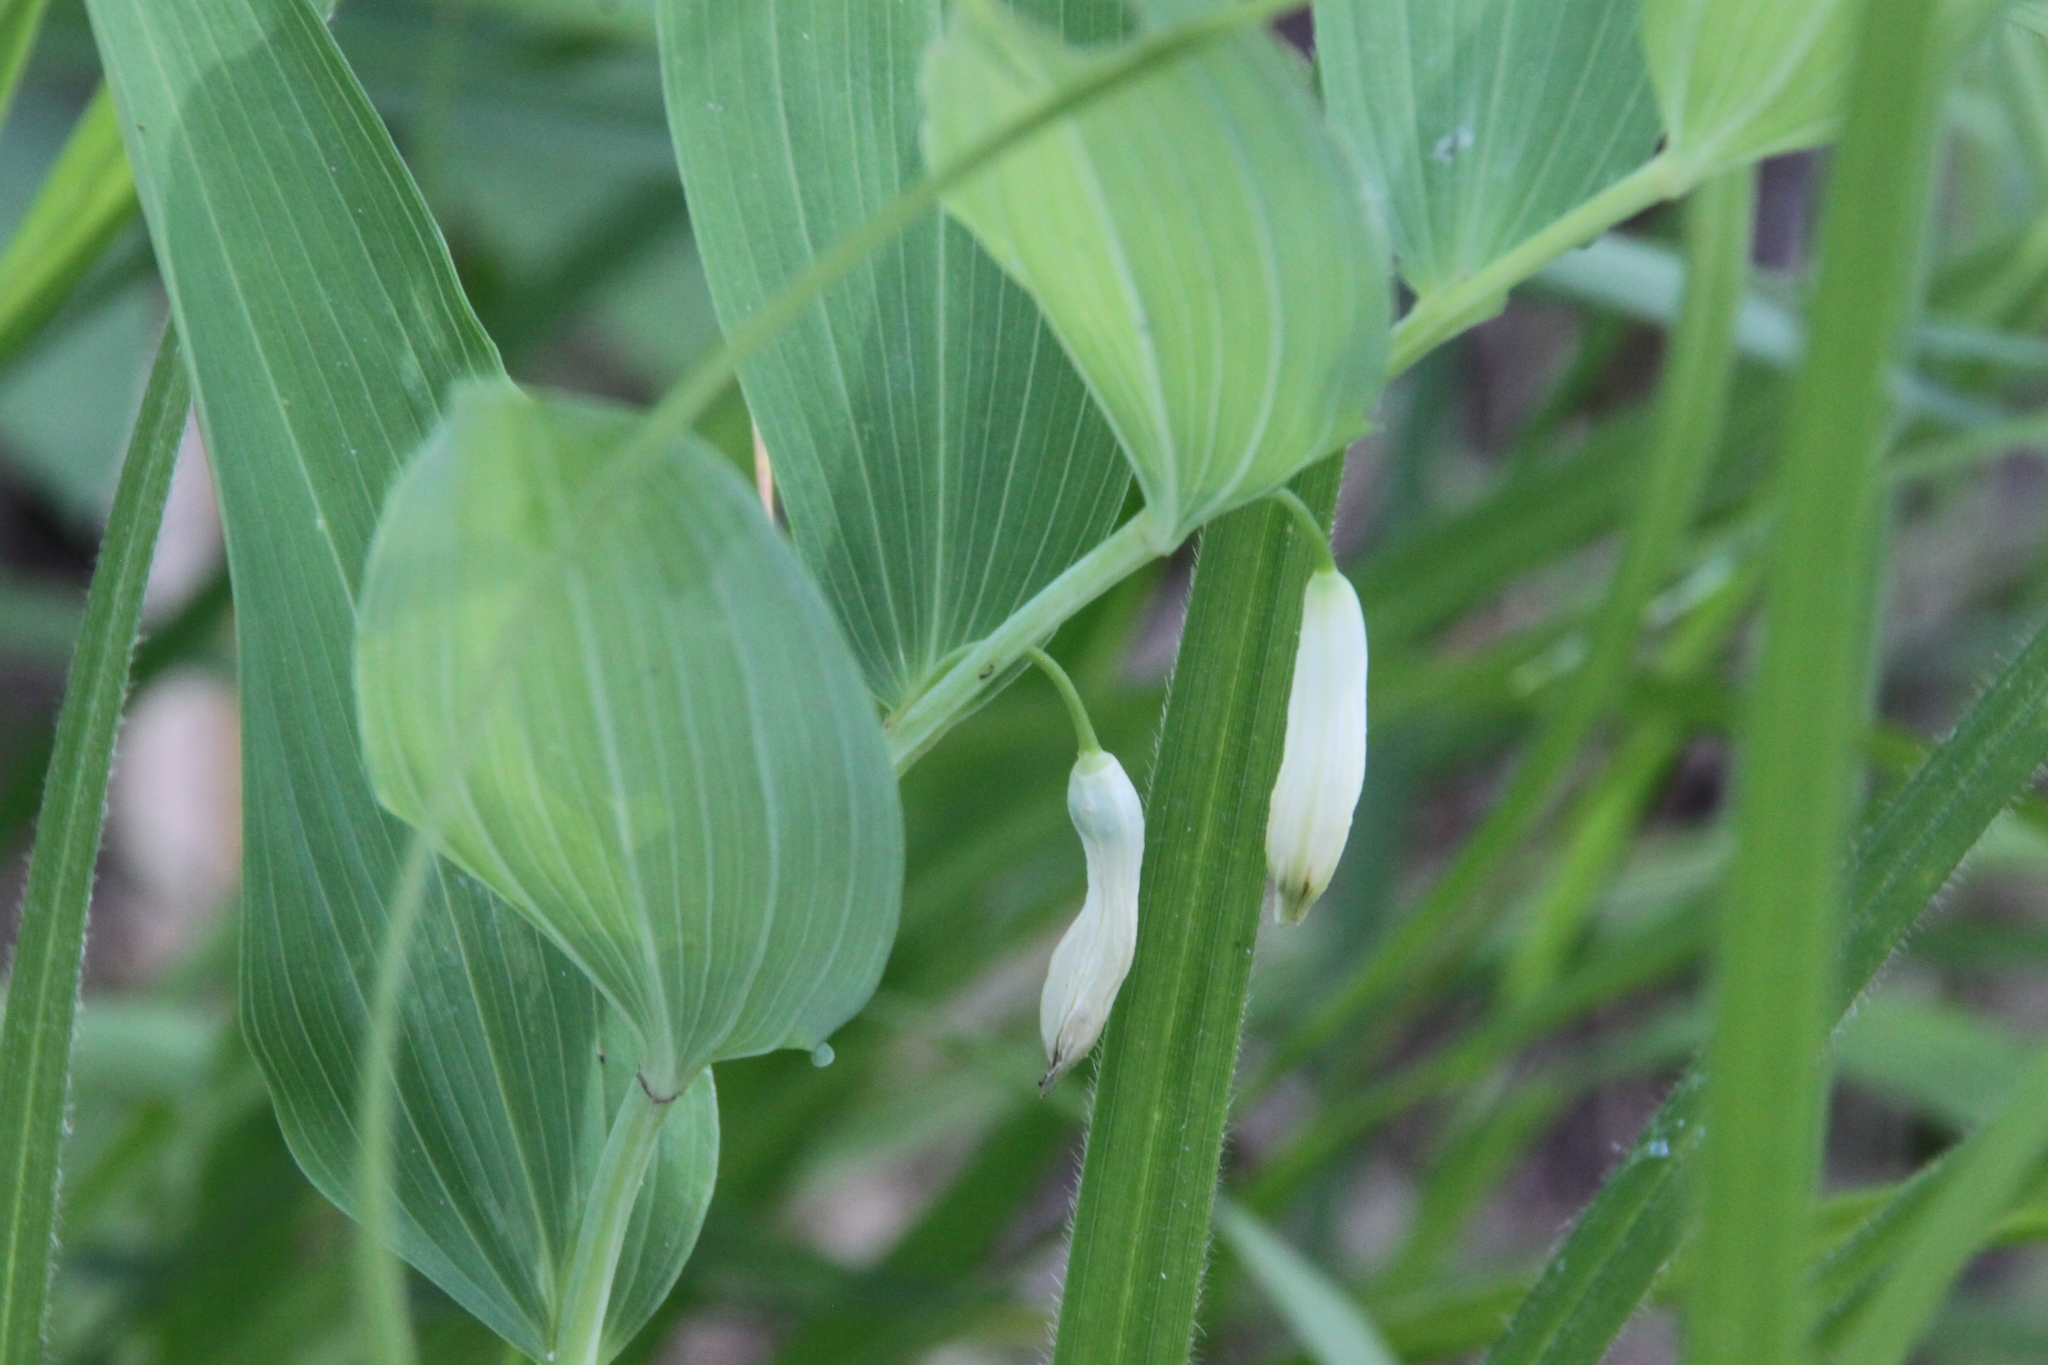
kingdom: Plantae
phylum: Tracheophyta
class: Liliopsida
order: Asparagales
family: Asparagaceae
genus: Polygonatum
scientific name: Polygonatum odoratum
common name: Angular solomon's-seal
